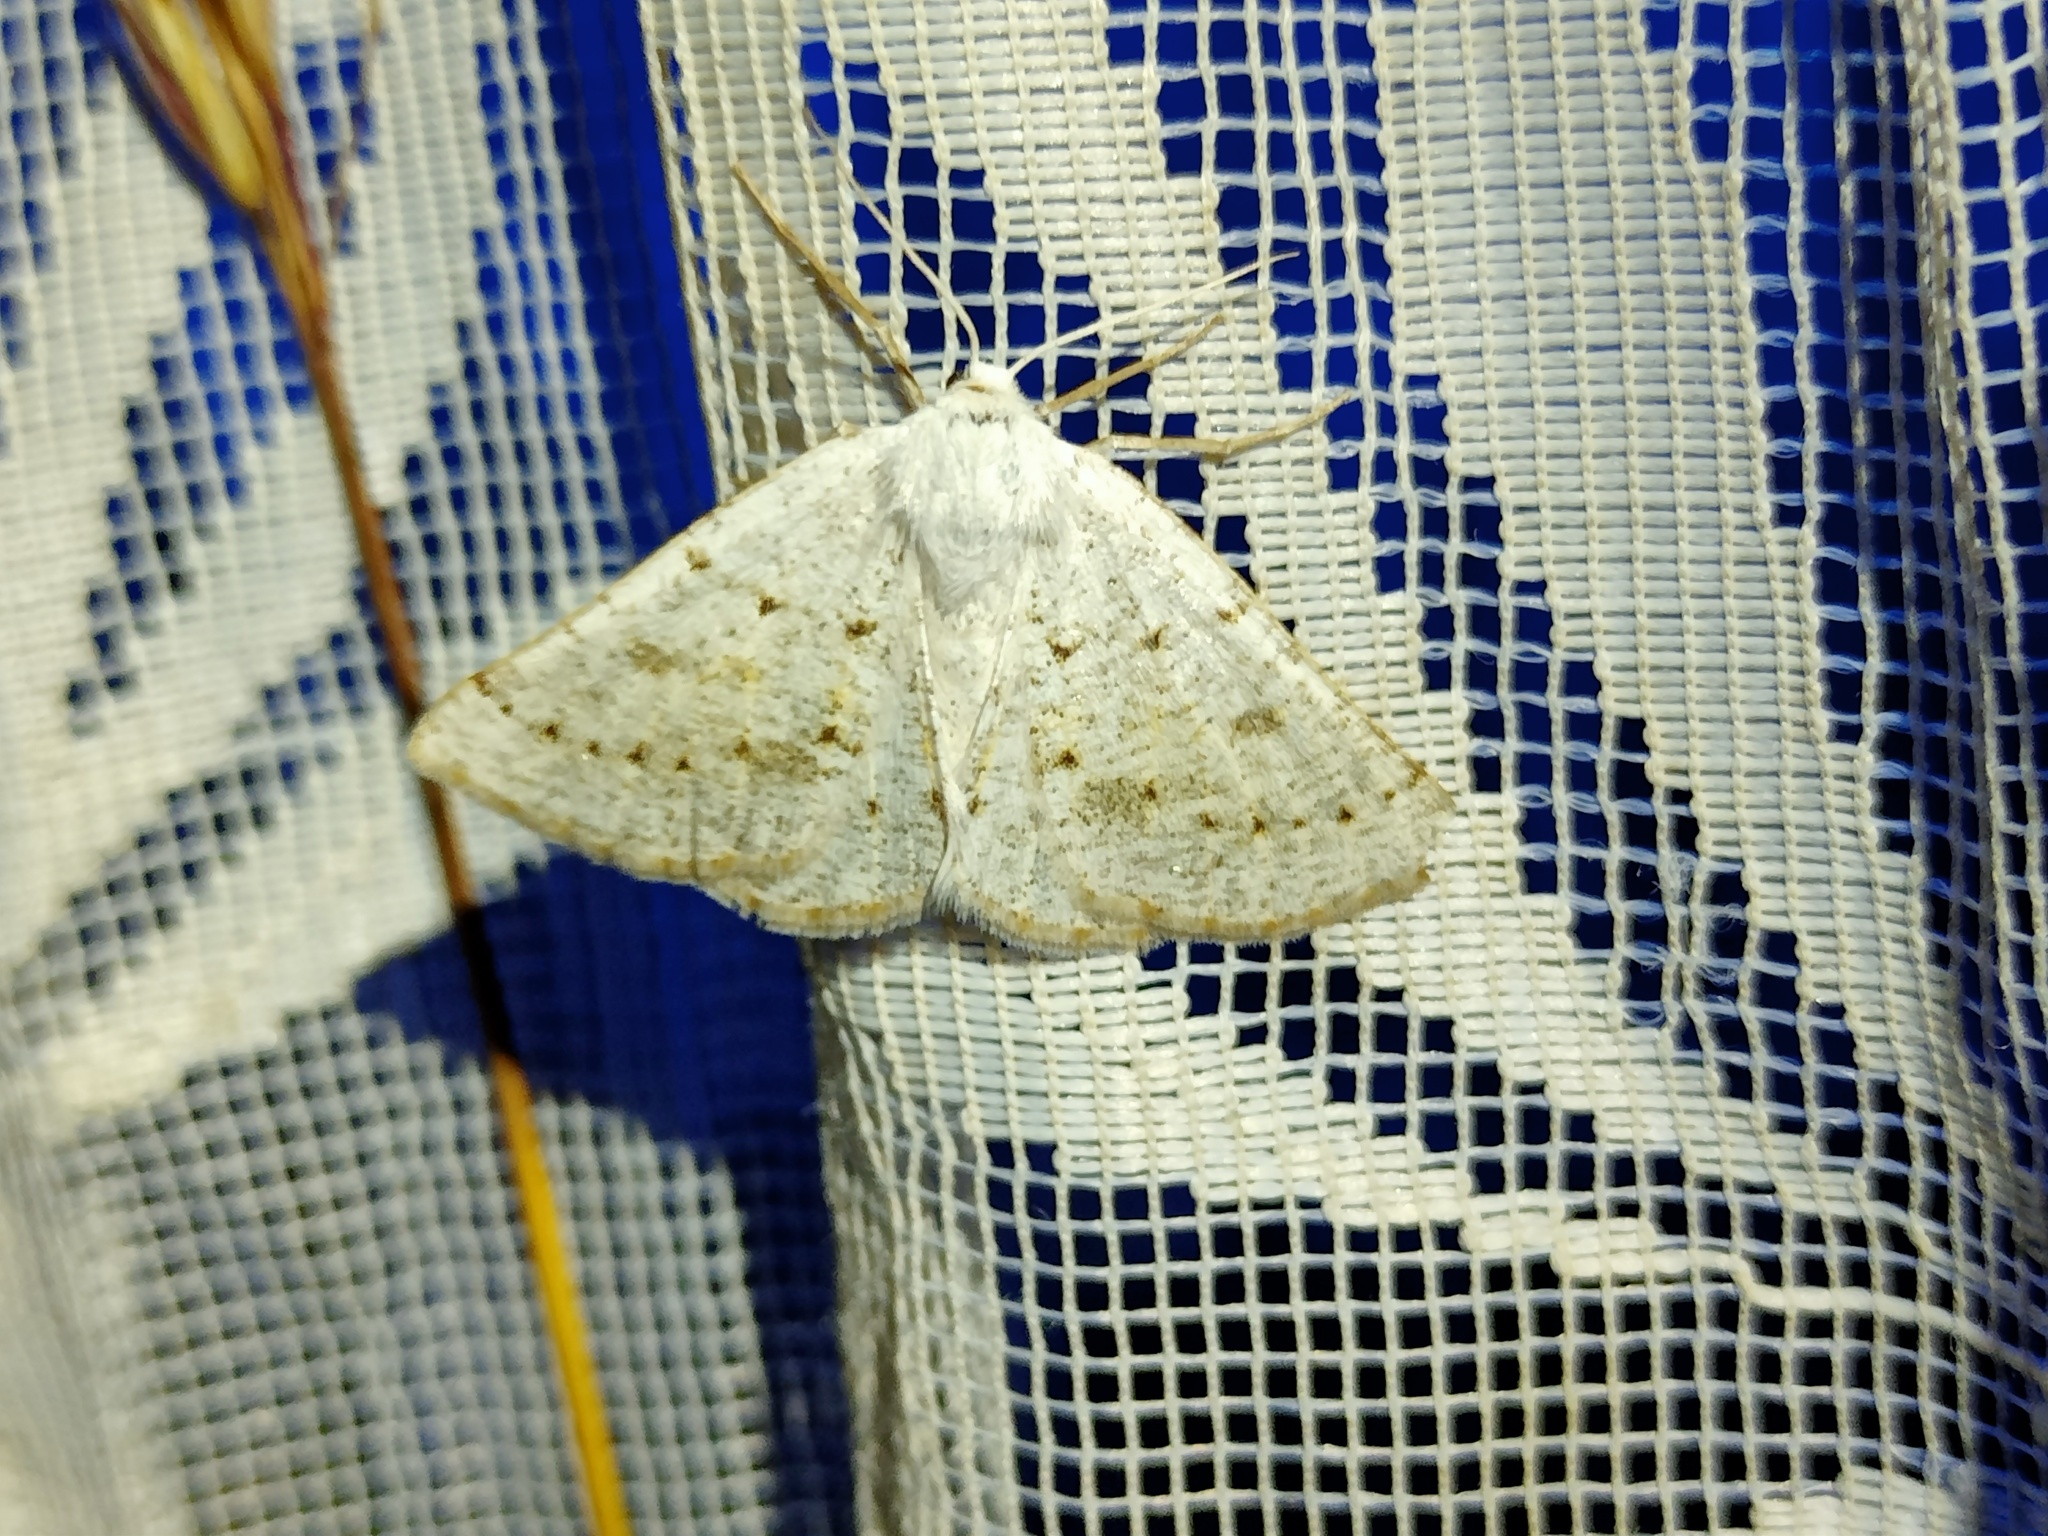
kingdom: Animalia
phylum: Arthropoda
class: Insecta
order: Lepidoptera
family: Geometridae
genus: Dyscia
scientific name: Dyscia conspersaria
